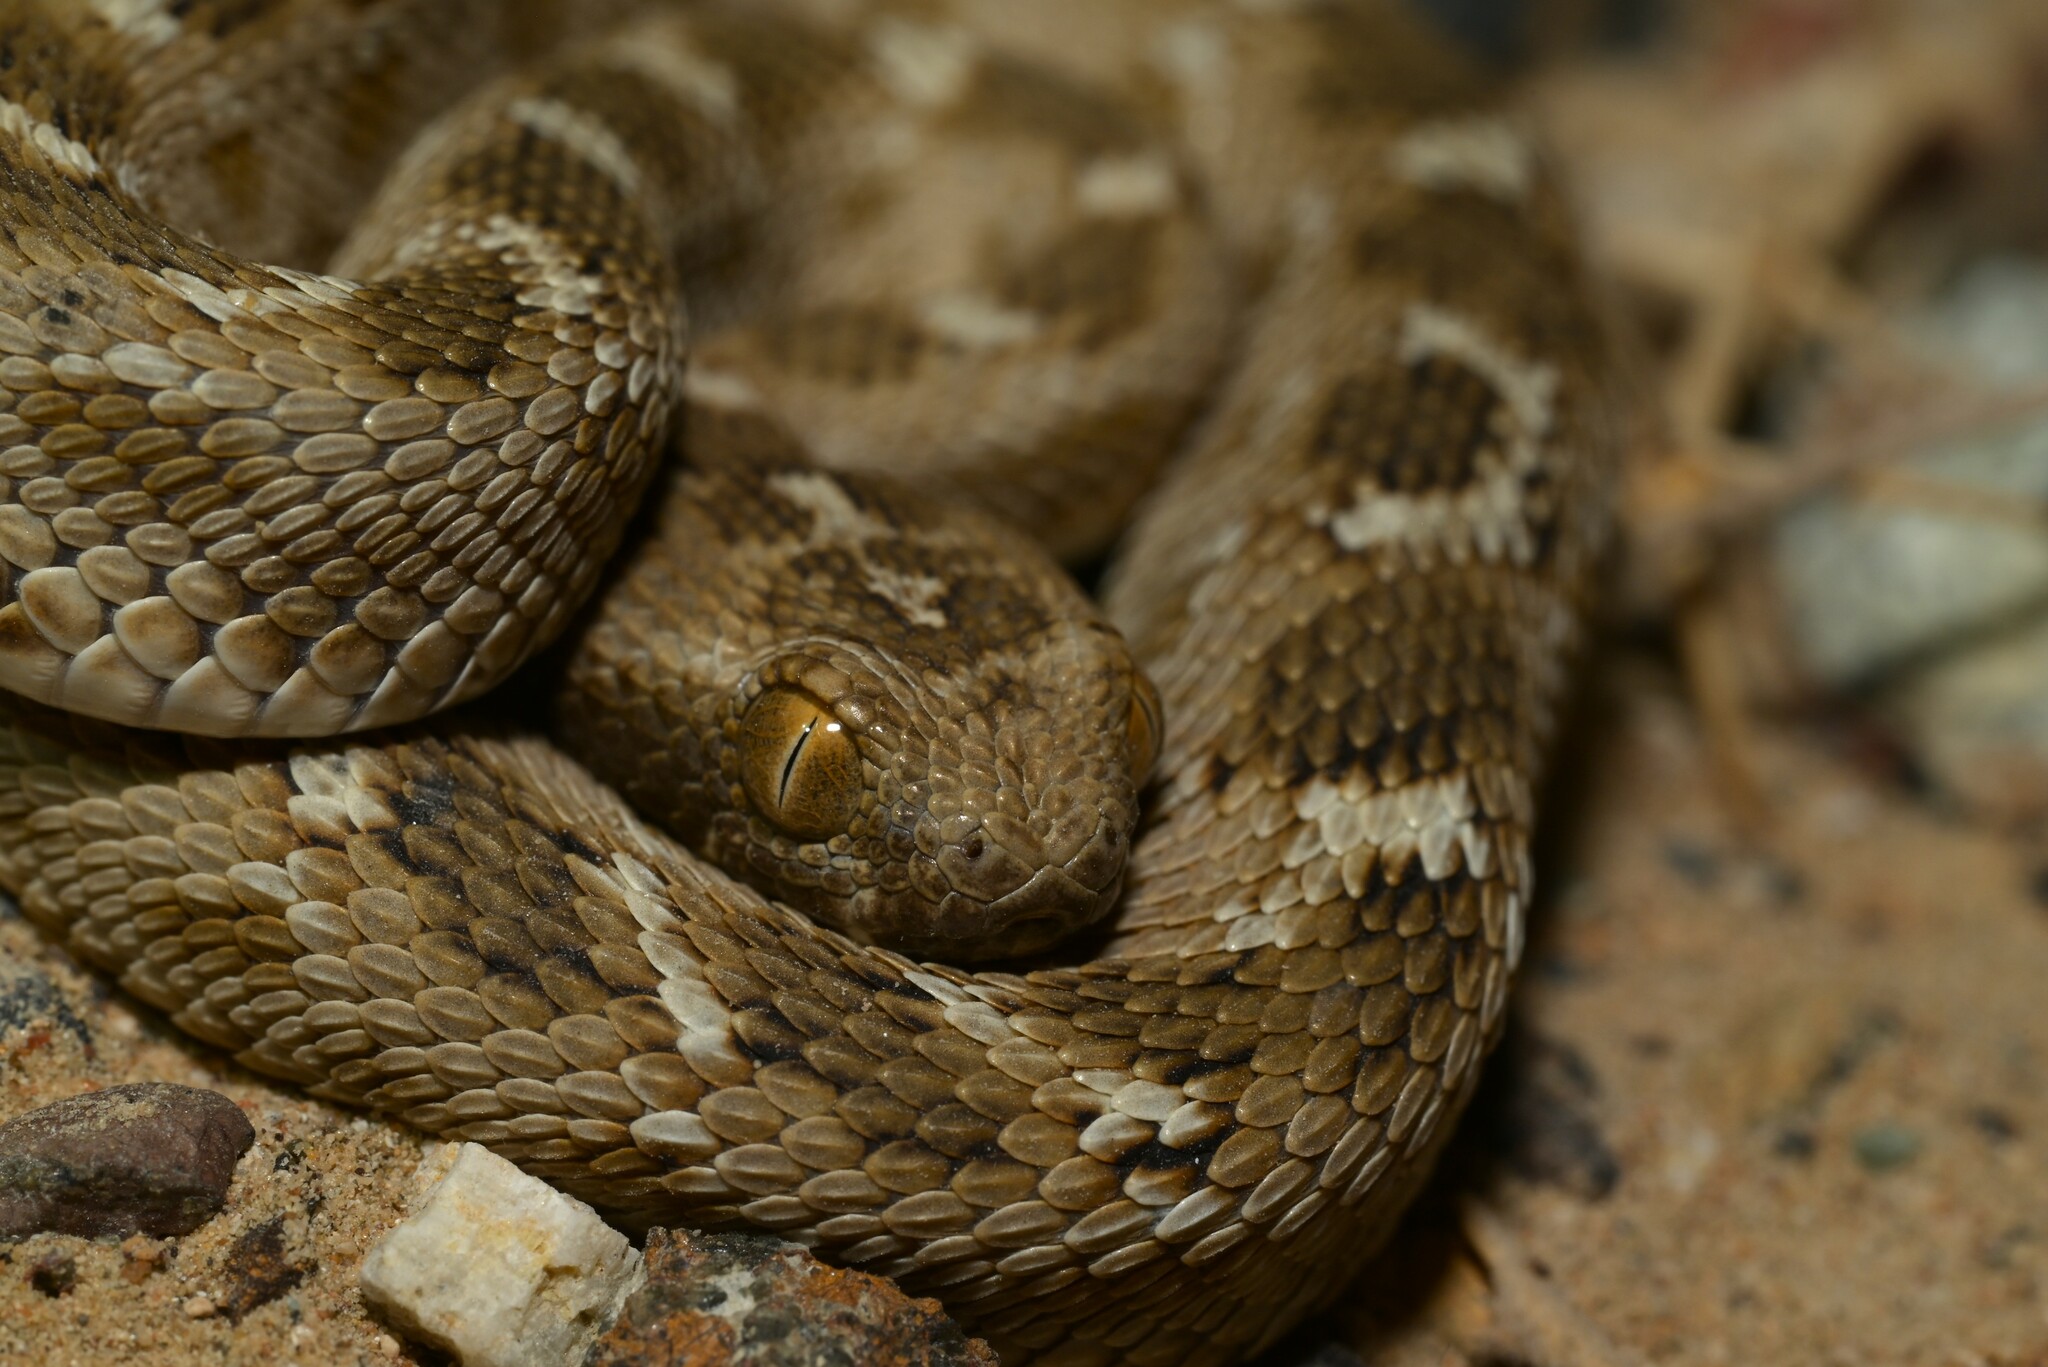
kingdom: Animalia
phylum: Chordata
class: Squamata
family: Viperidae
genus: Echis
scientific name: Echis carinatus
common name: Saw-scaled viper
